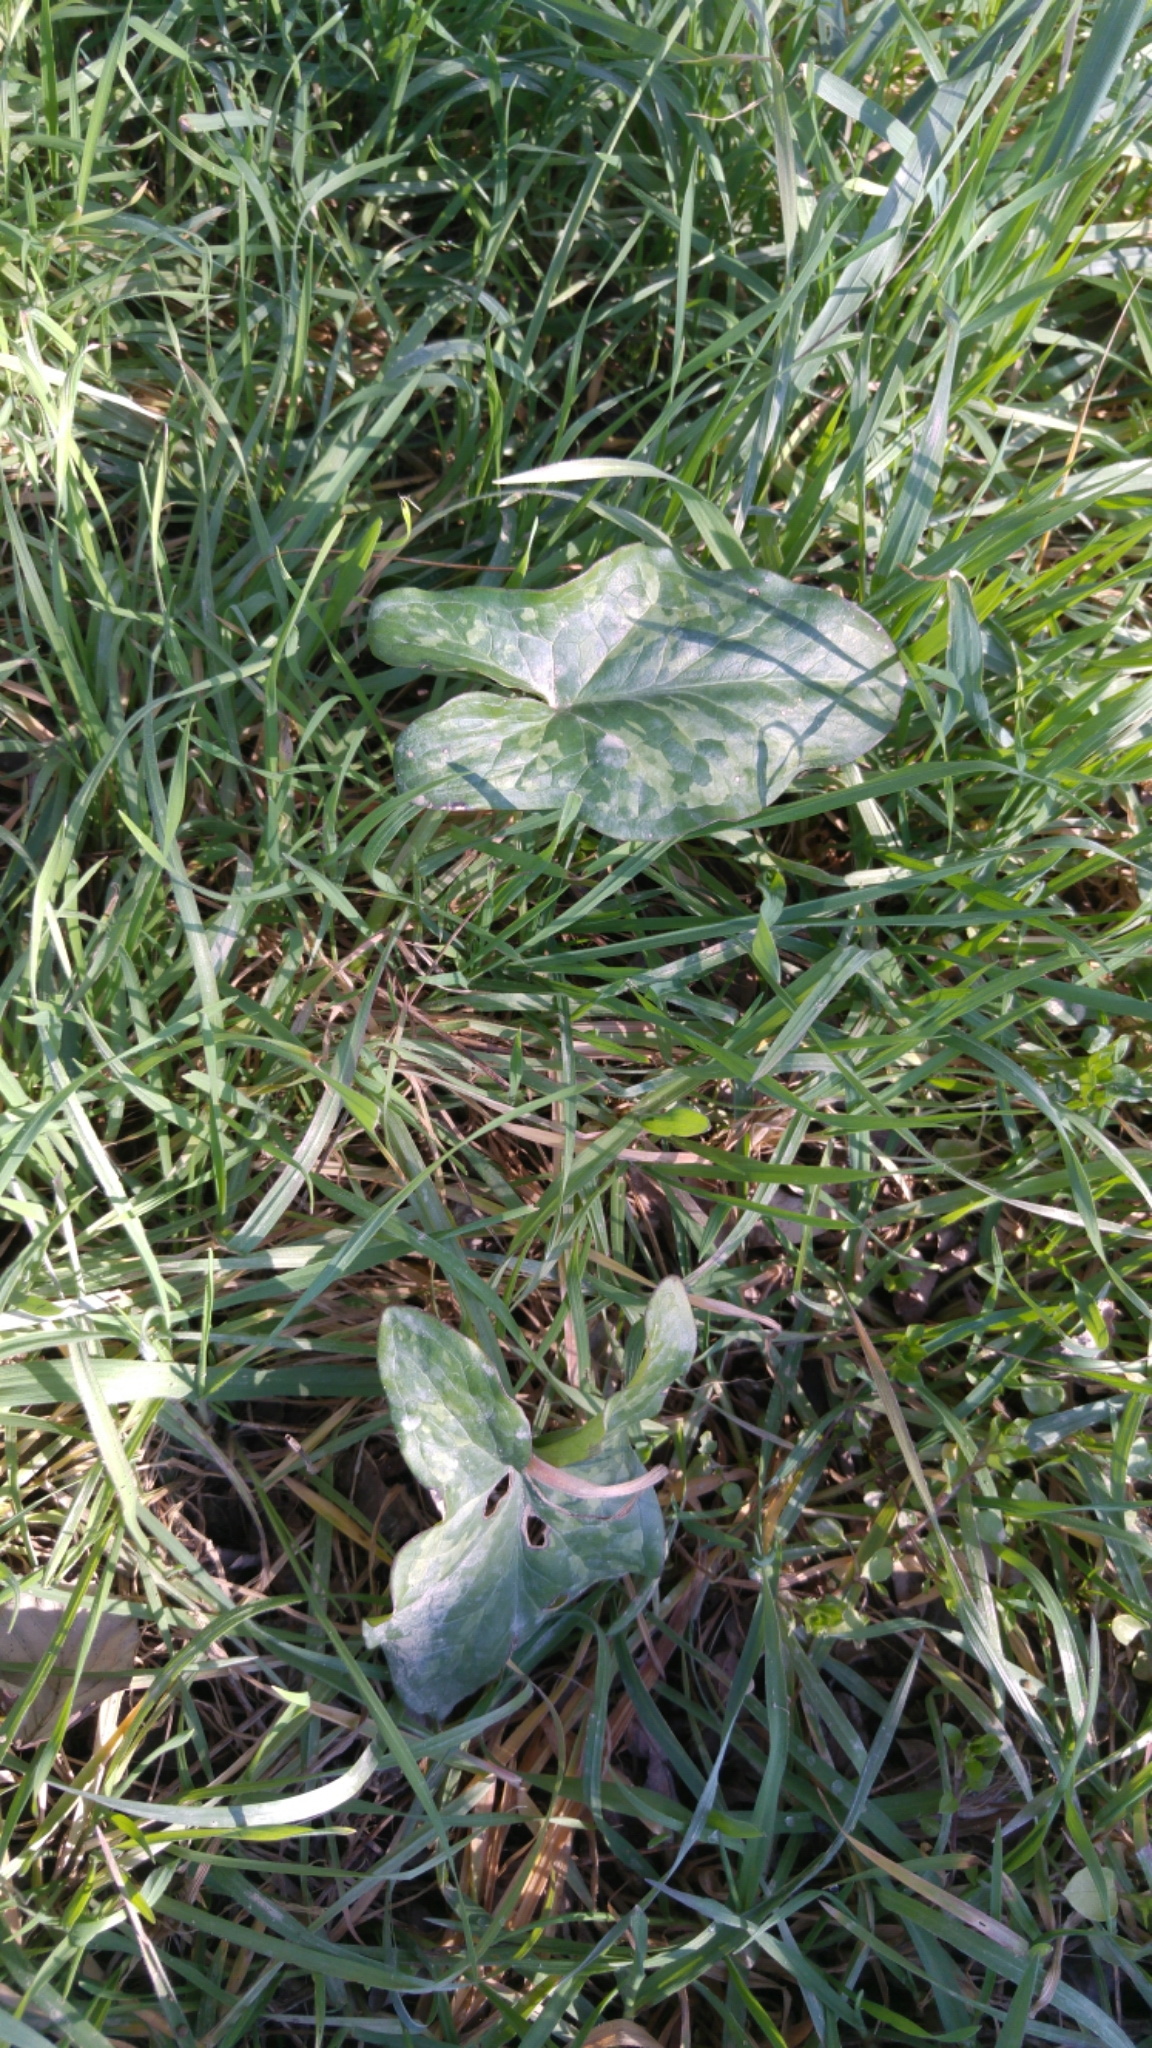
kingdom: Plantae
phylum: Tracheophyta
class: Liliopsida
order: Alismatales
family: Araceae
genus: Arum
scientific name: Arum italicum
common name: Italian lords-and-ladies
